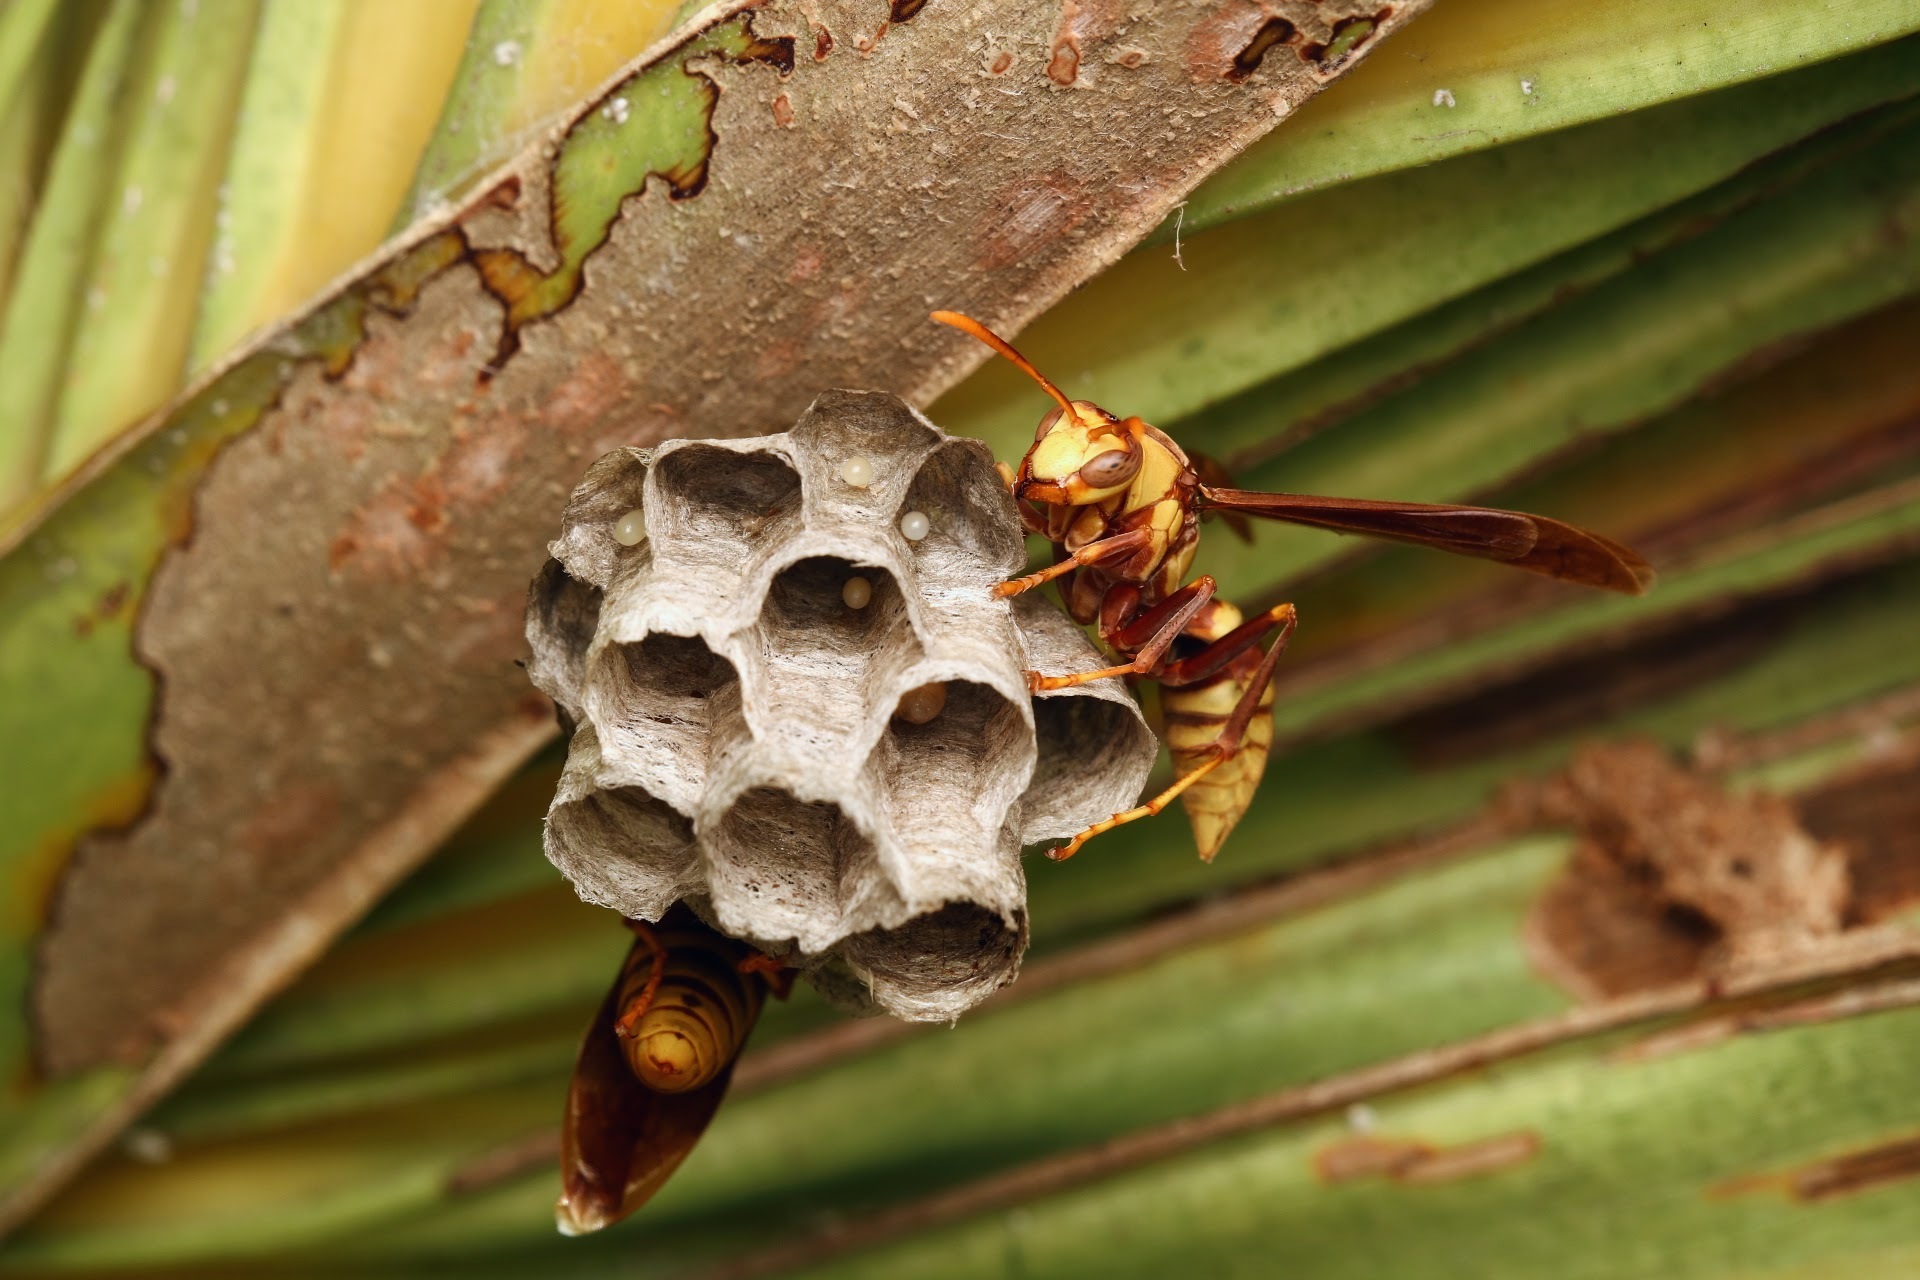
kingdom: Animalia
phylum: Arthropoda
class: Insecta
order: Hymenoptera
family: Eumenidae
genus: Polistes
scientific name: Polistes major
